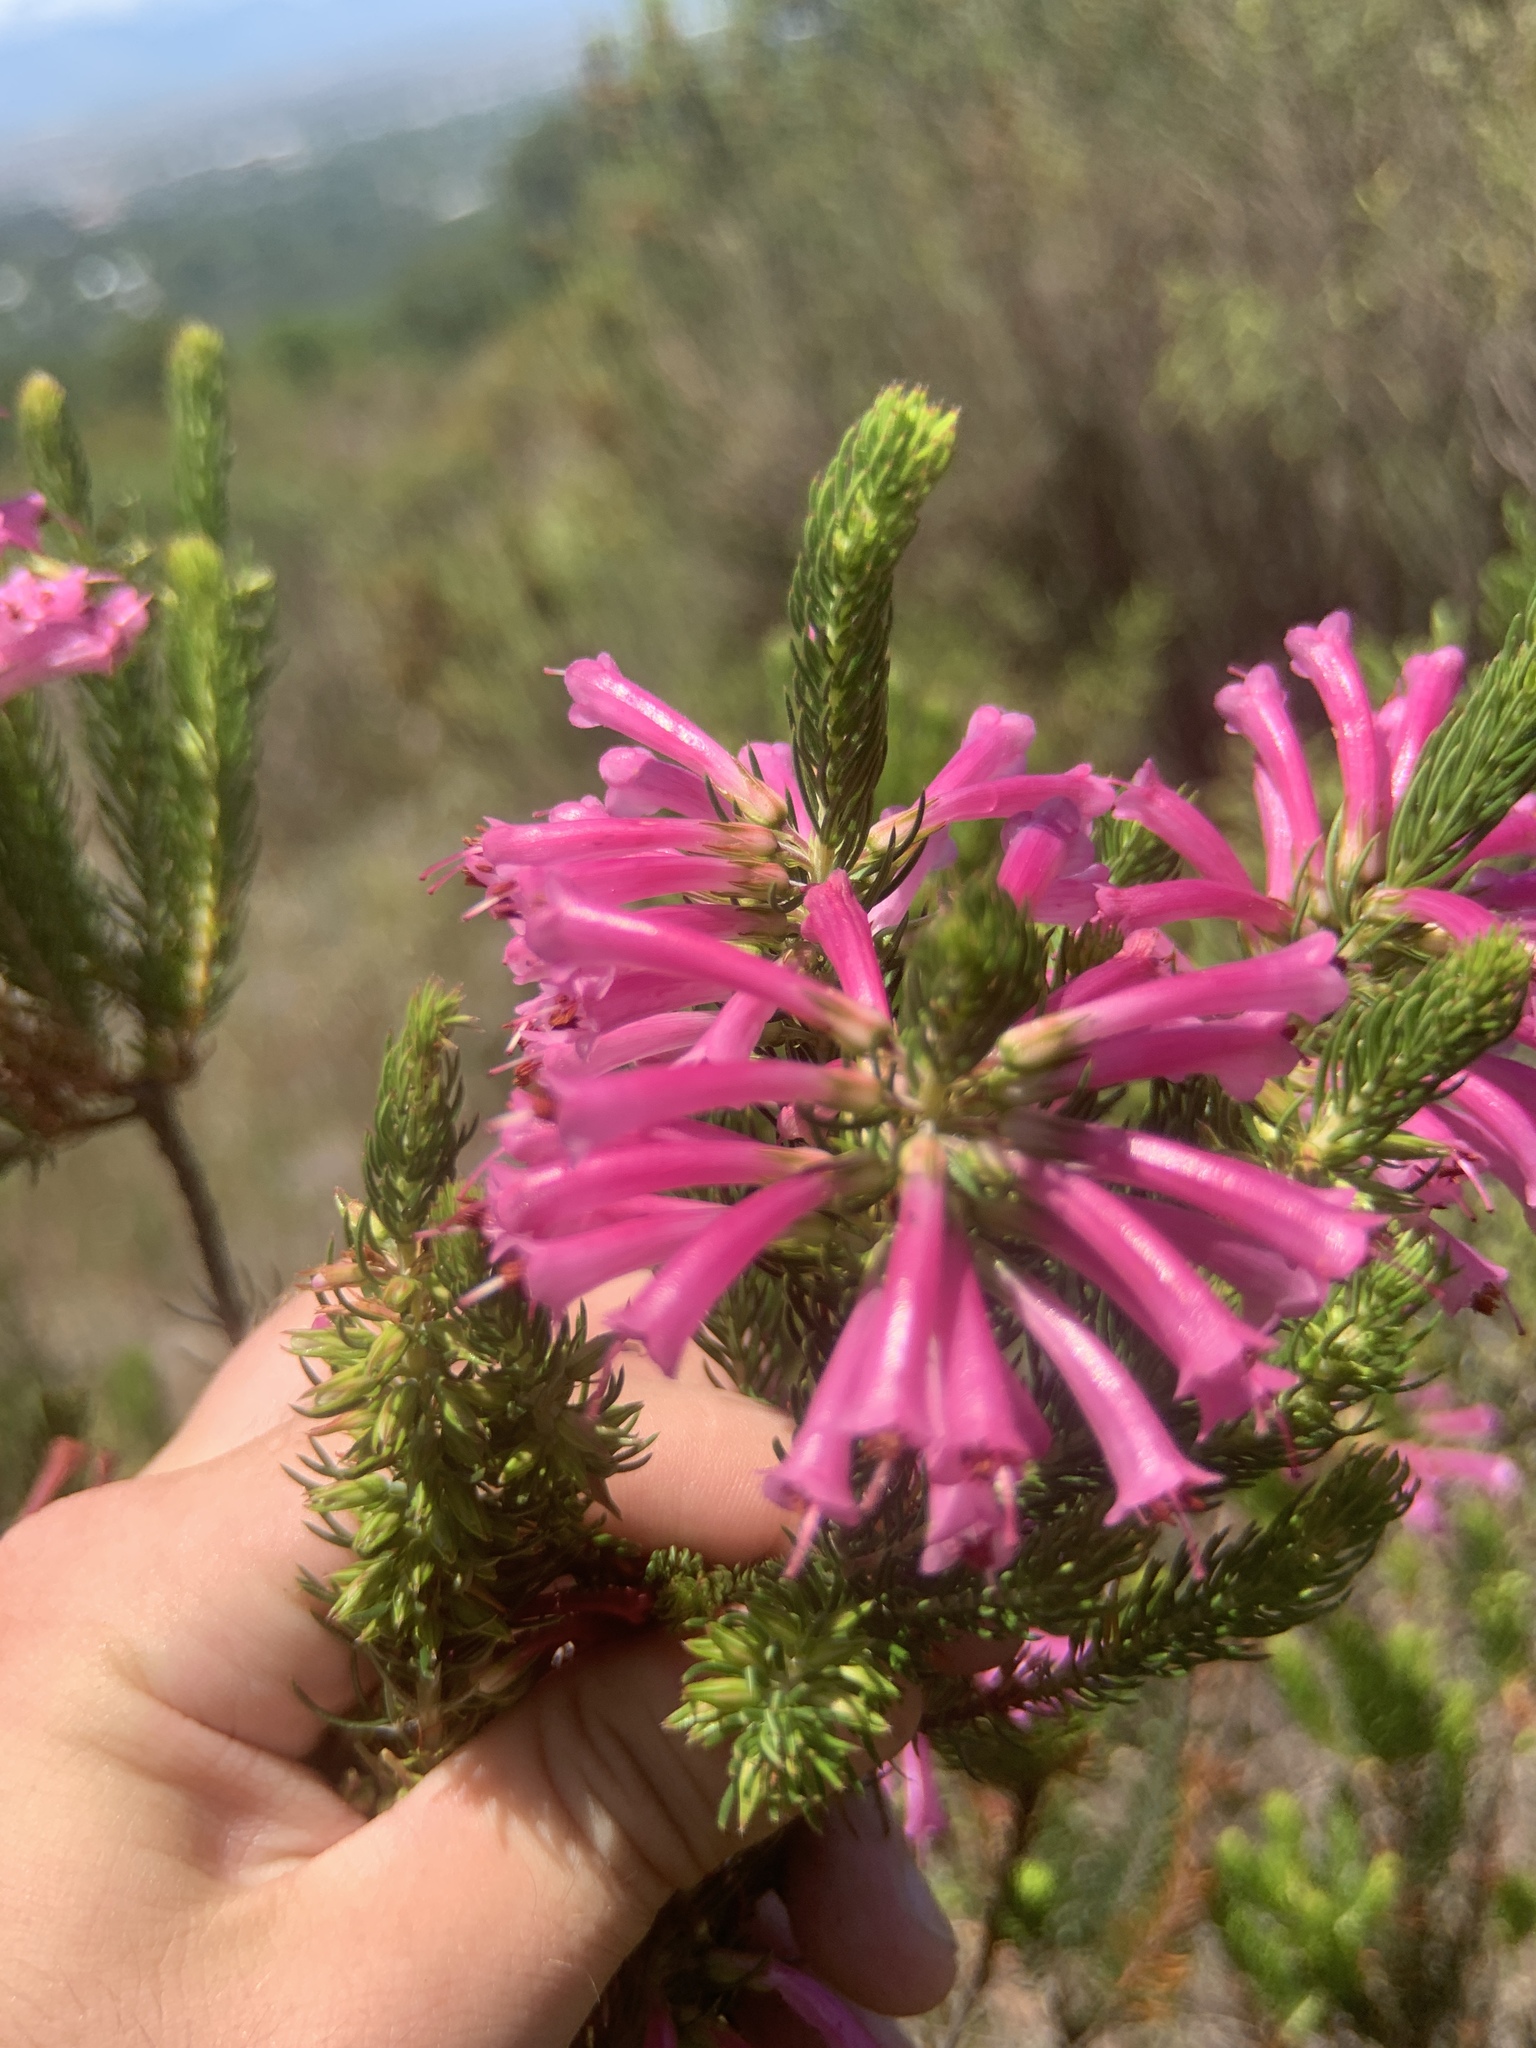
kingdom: Plantae
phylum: Tracheophyta
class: Magnoliopsida
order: Ericales
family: Ericaceae
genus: Erica
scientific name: Erica abietina
